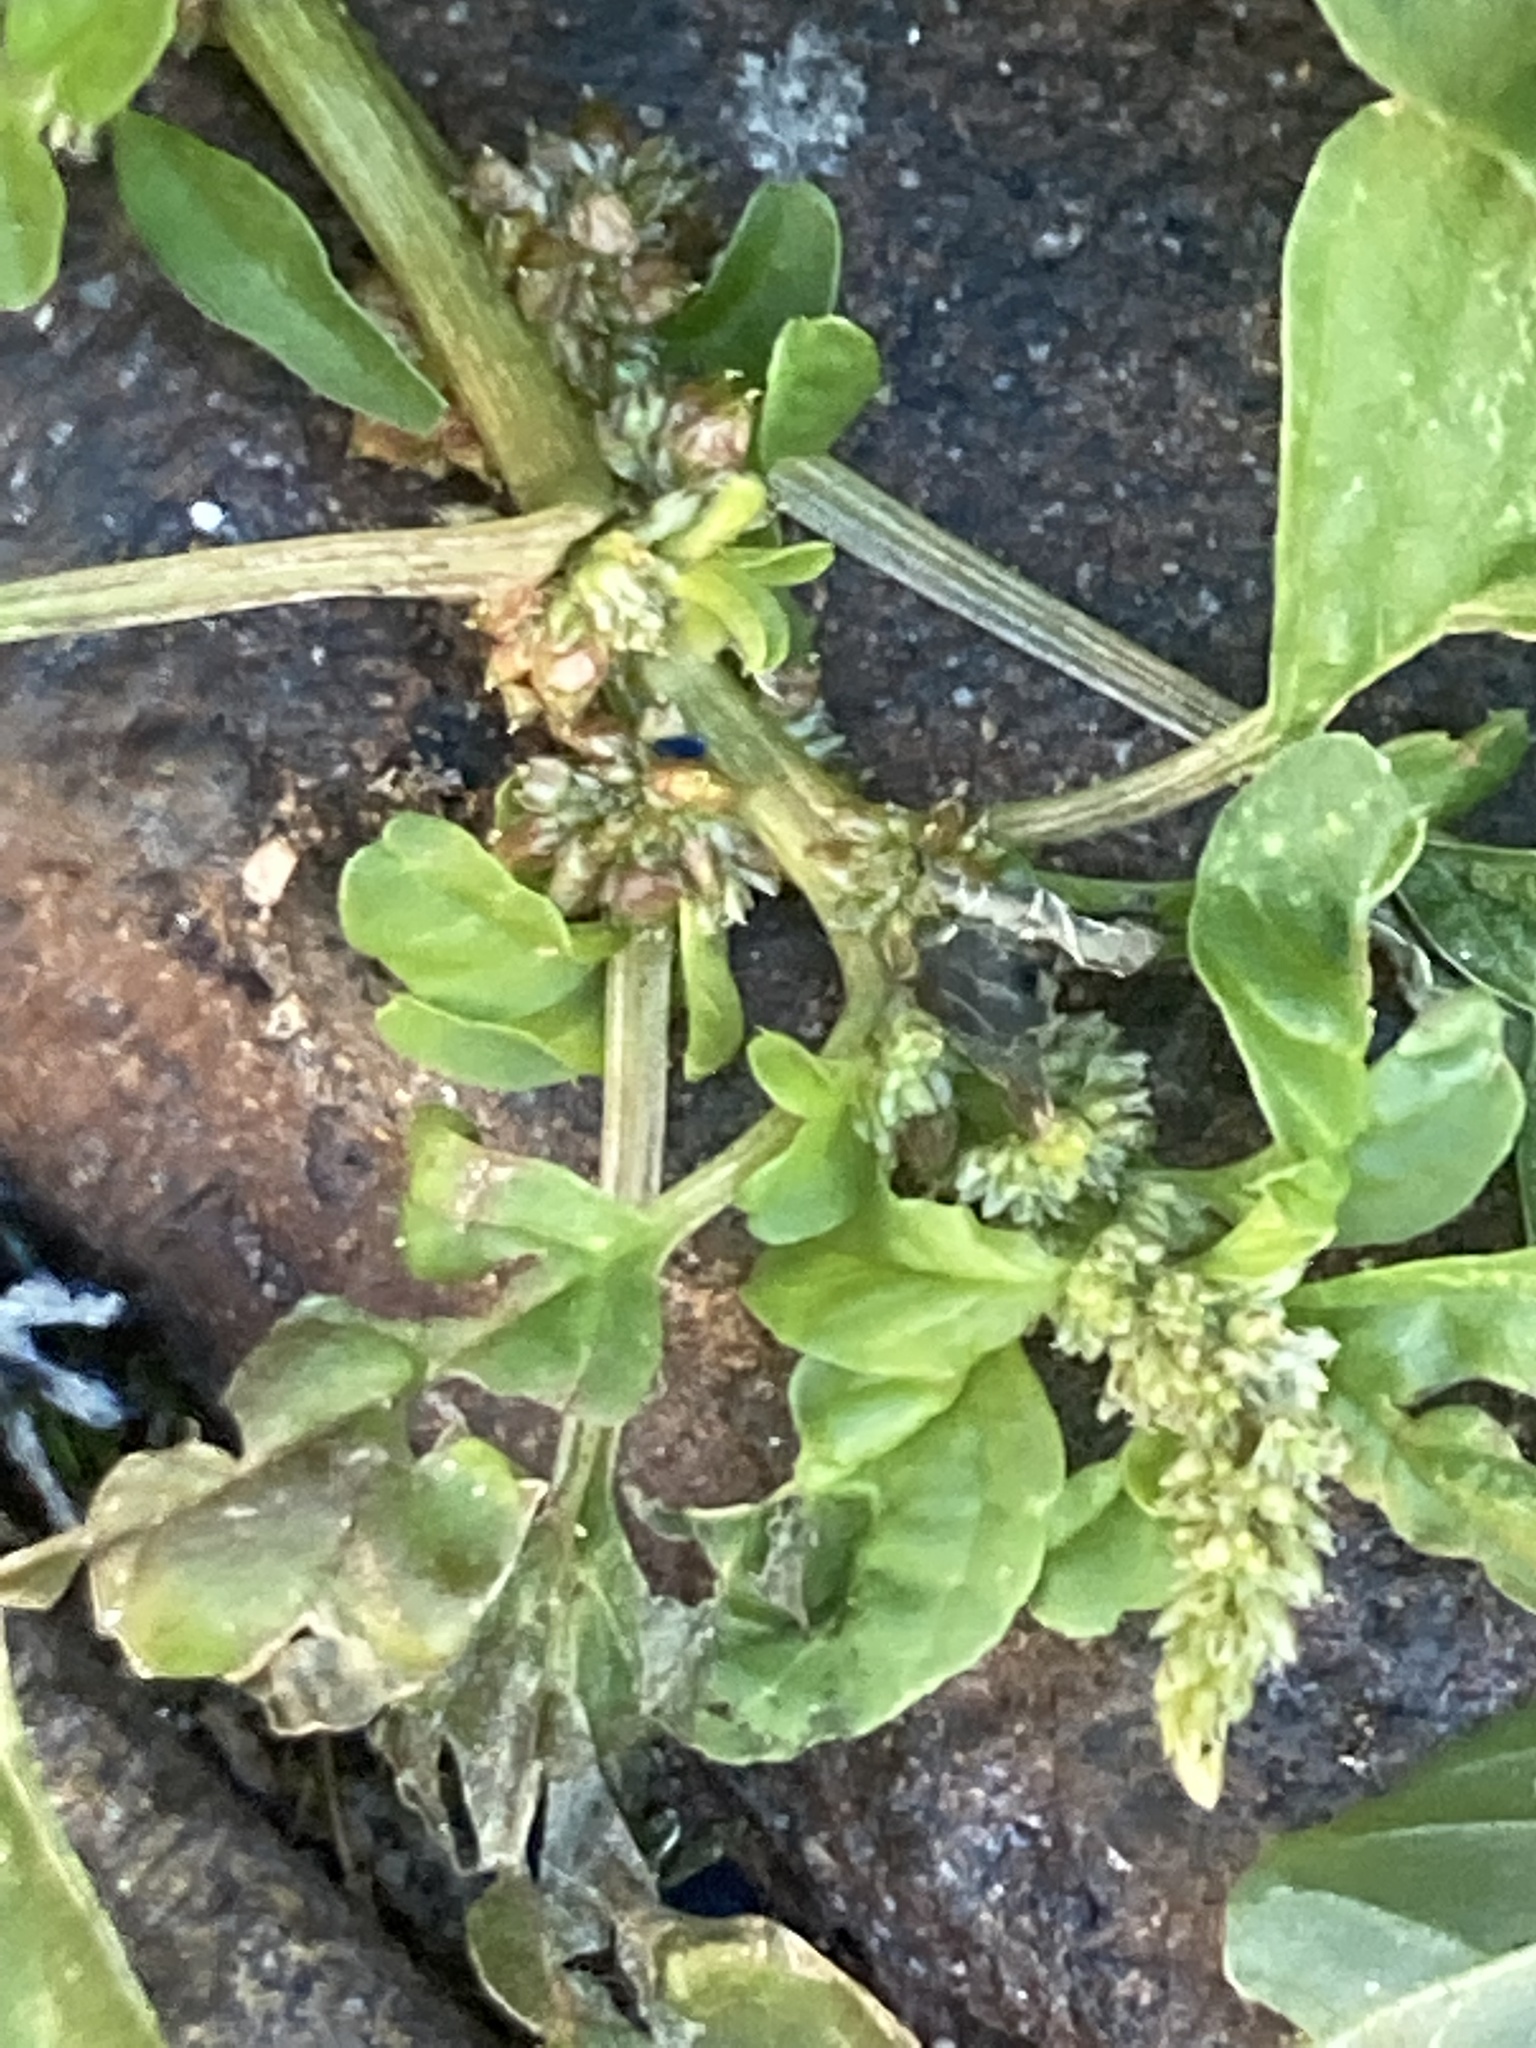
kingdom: Plantae
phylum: Tracheophyta
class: Magnoliopsida
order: Caryophyllales
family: Amaranthaceae
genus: Amaranthus
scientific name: Amaranthus blitum
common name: Purple amaranth
